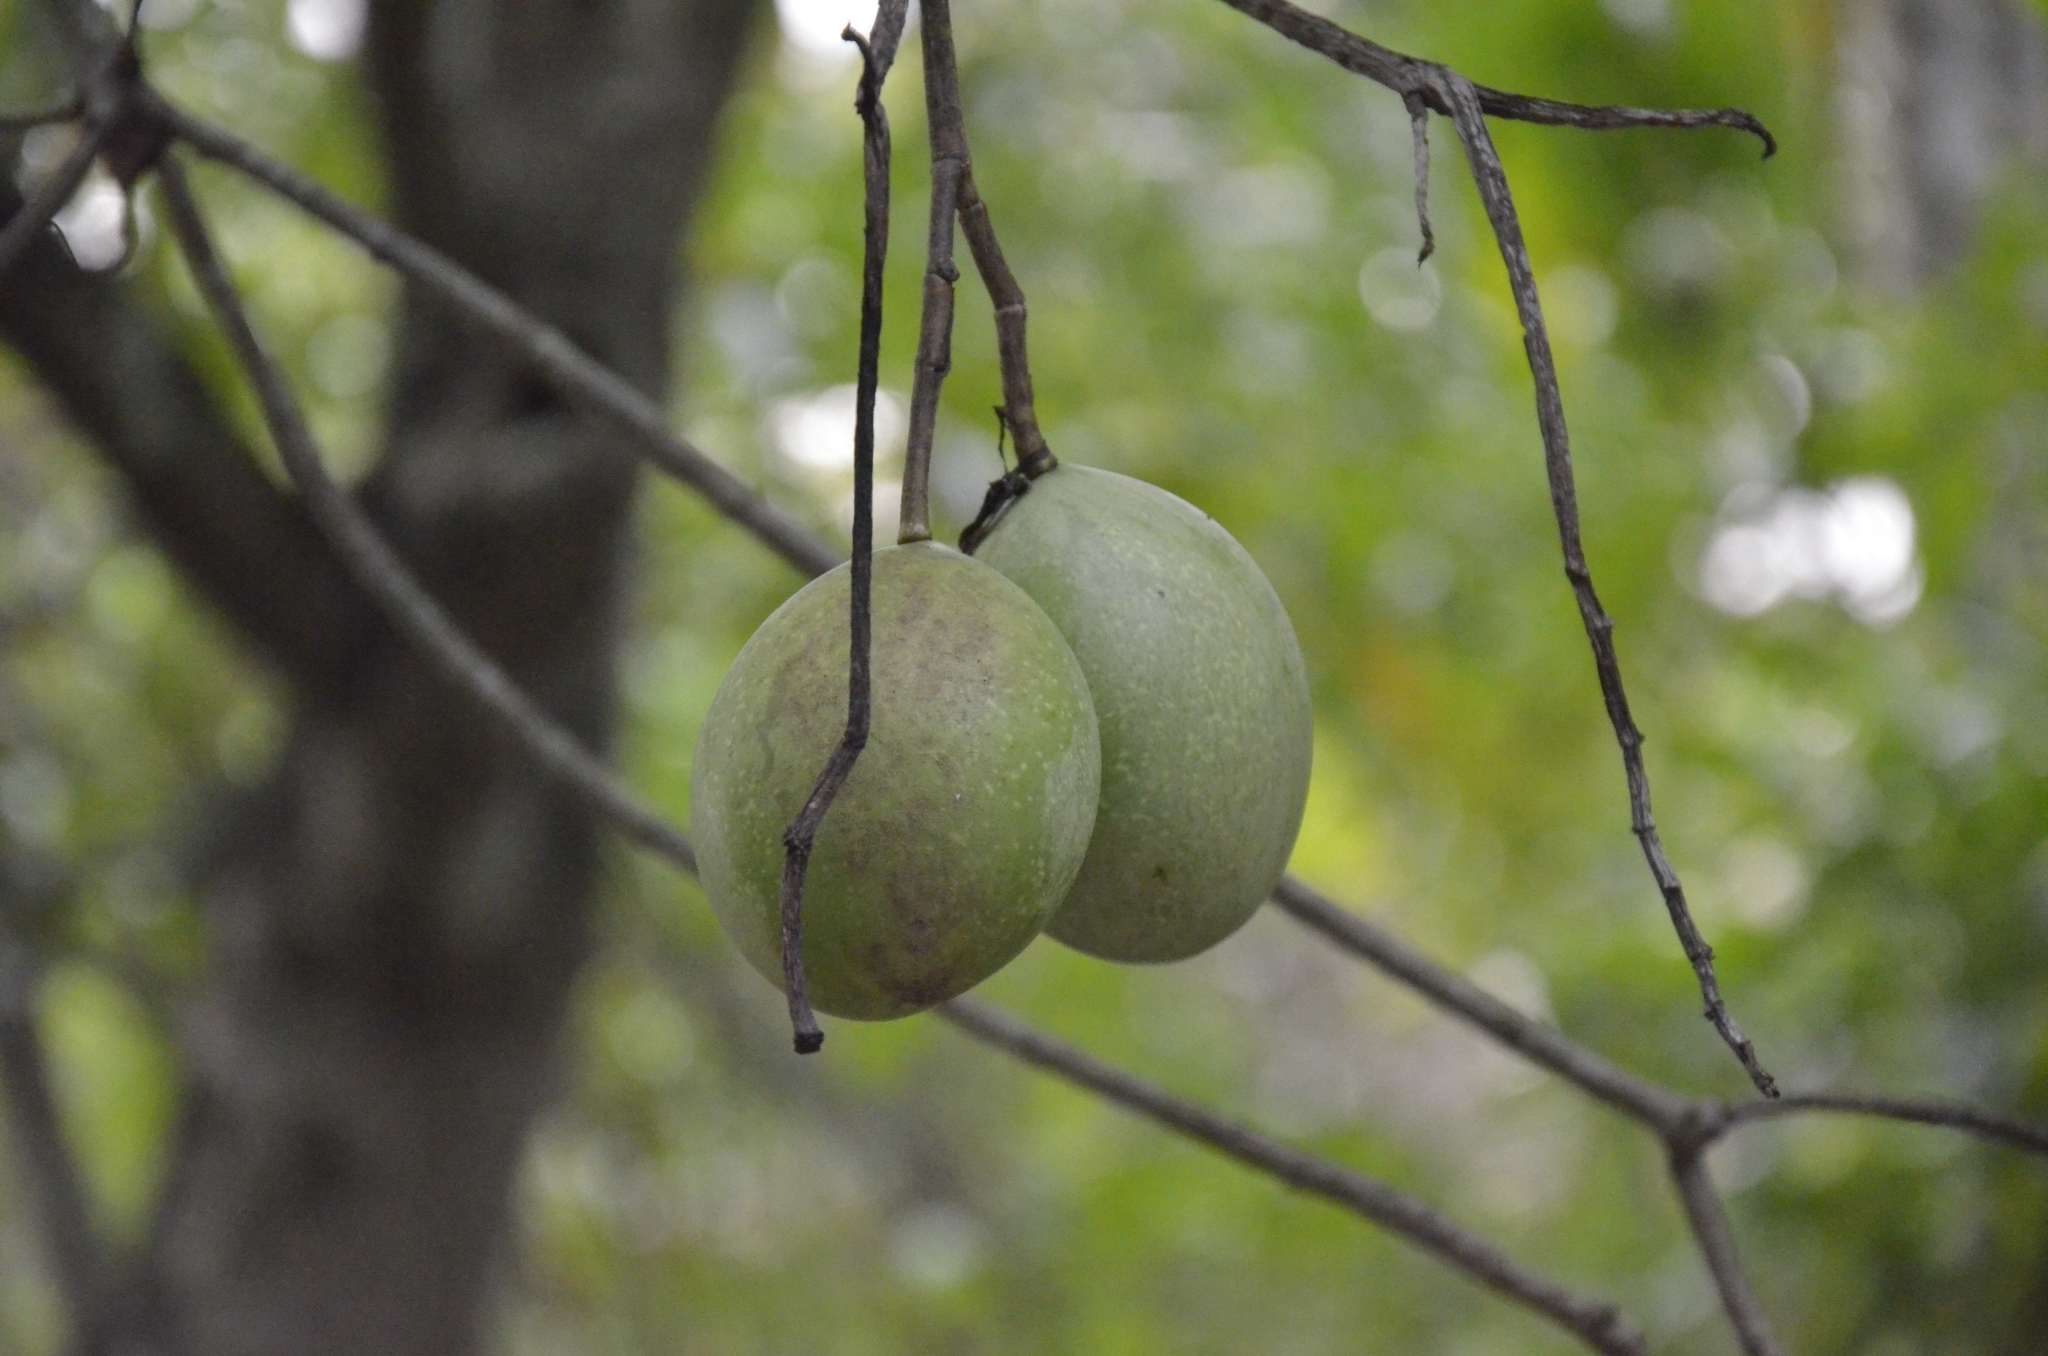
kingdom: Plantae
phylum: Tracheophyta
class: Magnoliopsida
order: Gentianales
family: Apocynaceae
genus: Cerbera
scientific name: Cerbera odollam
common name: Pong-pong
